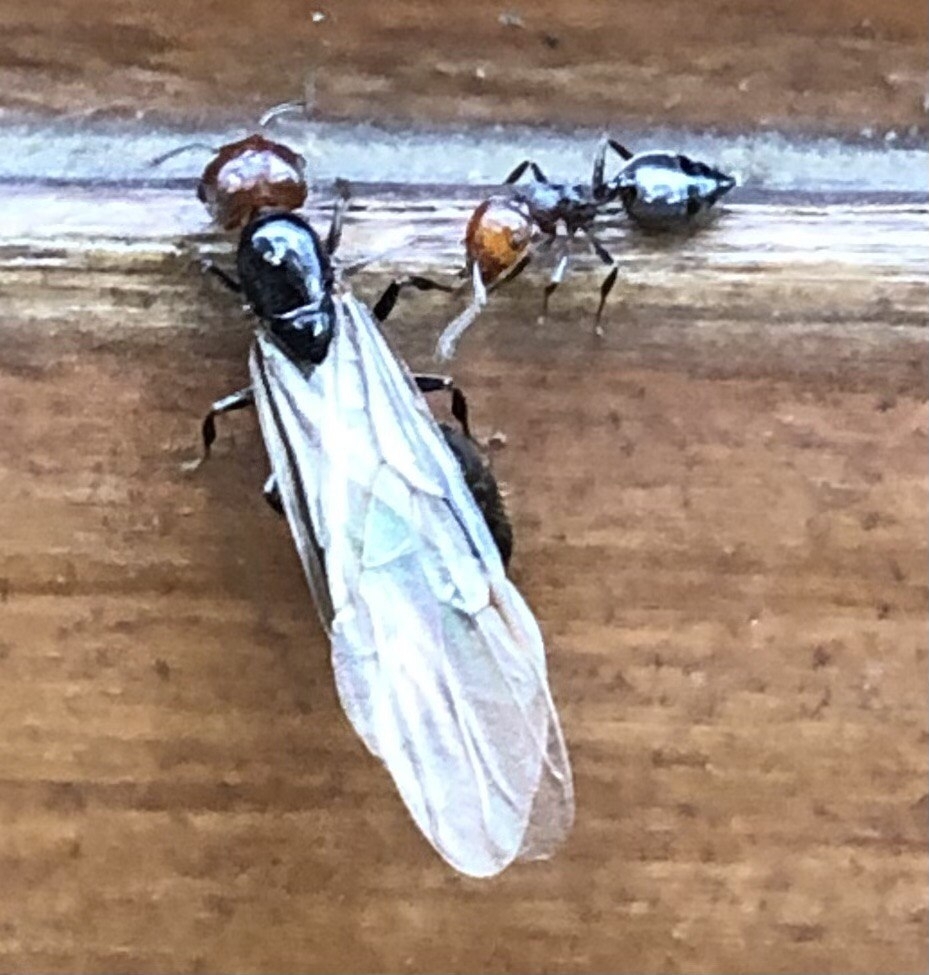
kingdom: Animalia
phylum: Arthropoda
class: Insecta
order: Hymenoptera
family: Formicidae
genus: Crematogaster
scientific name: Crematogaster scutellaris
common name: Fourmi du liège
